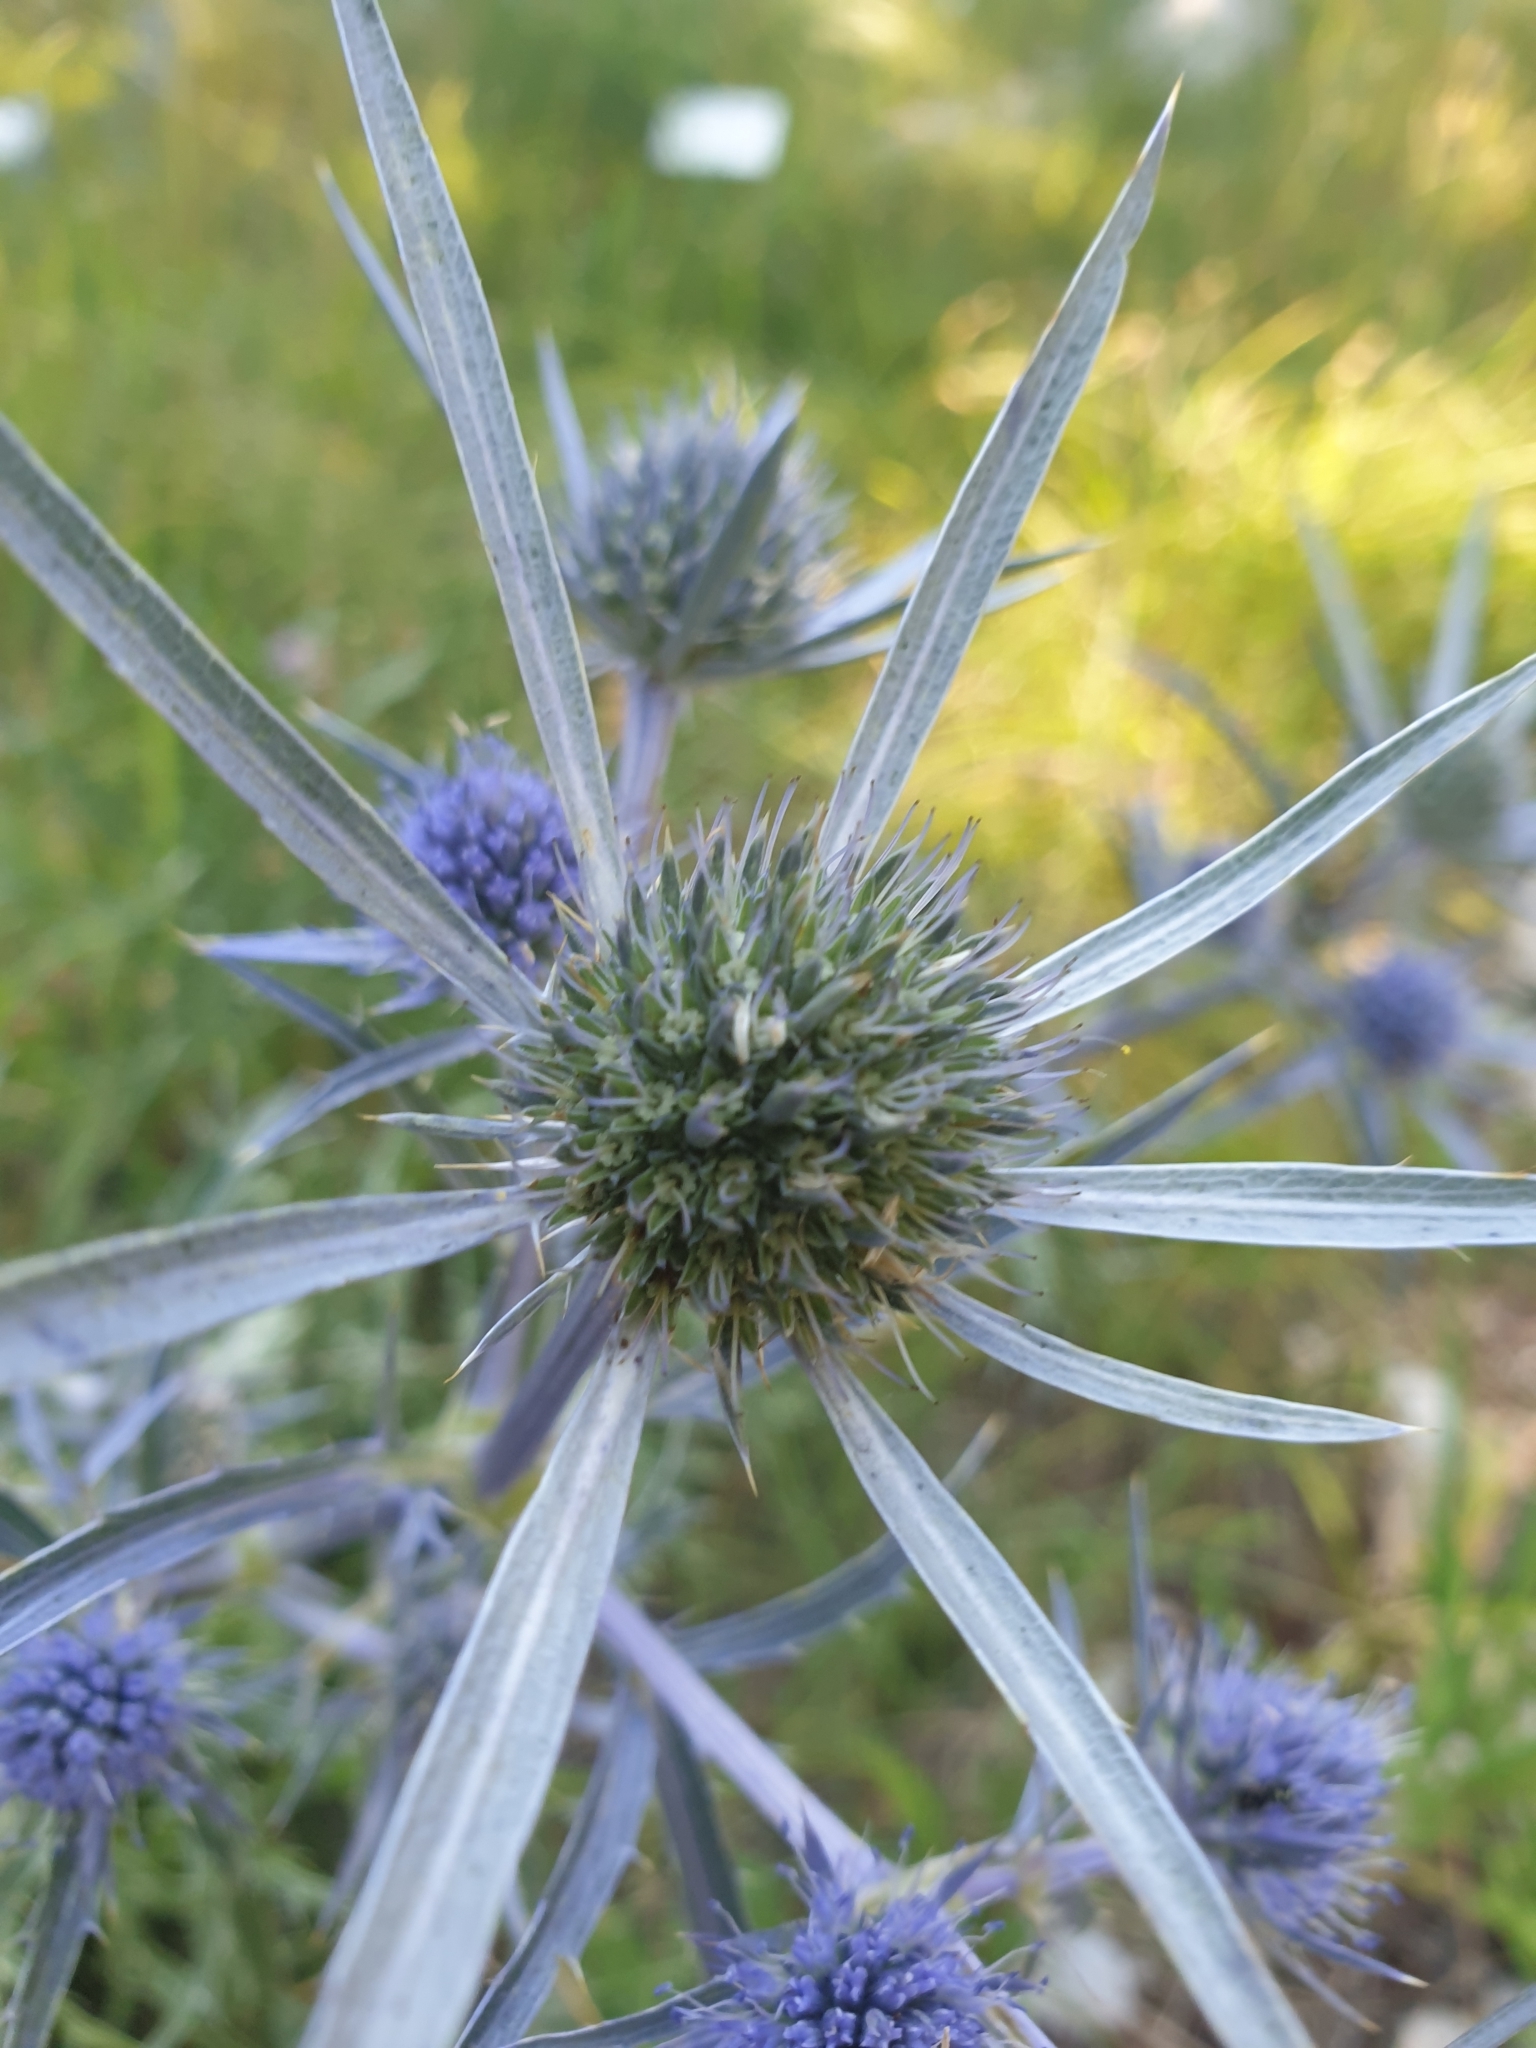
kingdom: Plantae
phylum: Tracheophyta
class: Magnoliopsida
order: Apiales
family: Apiaceae
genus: Eryngium
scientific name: Eryngium amethystinum
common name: Amethyst eryngo
